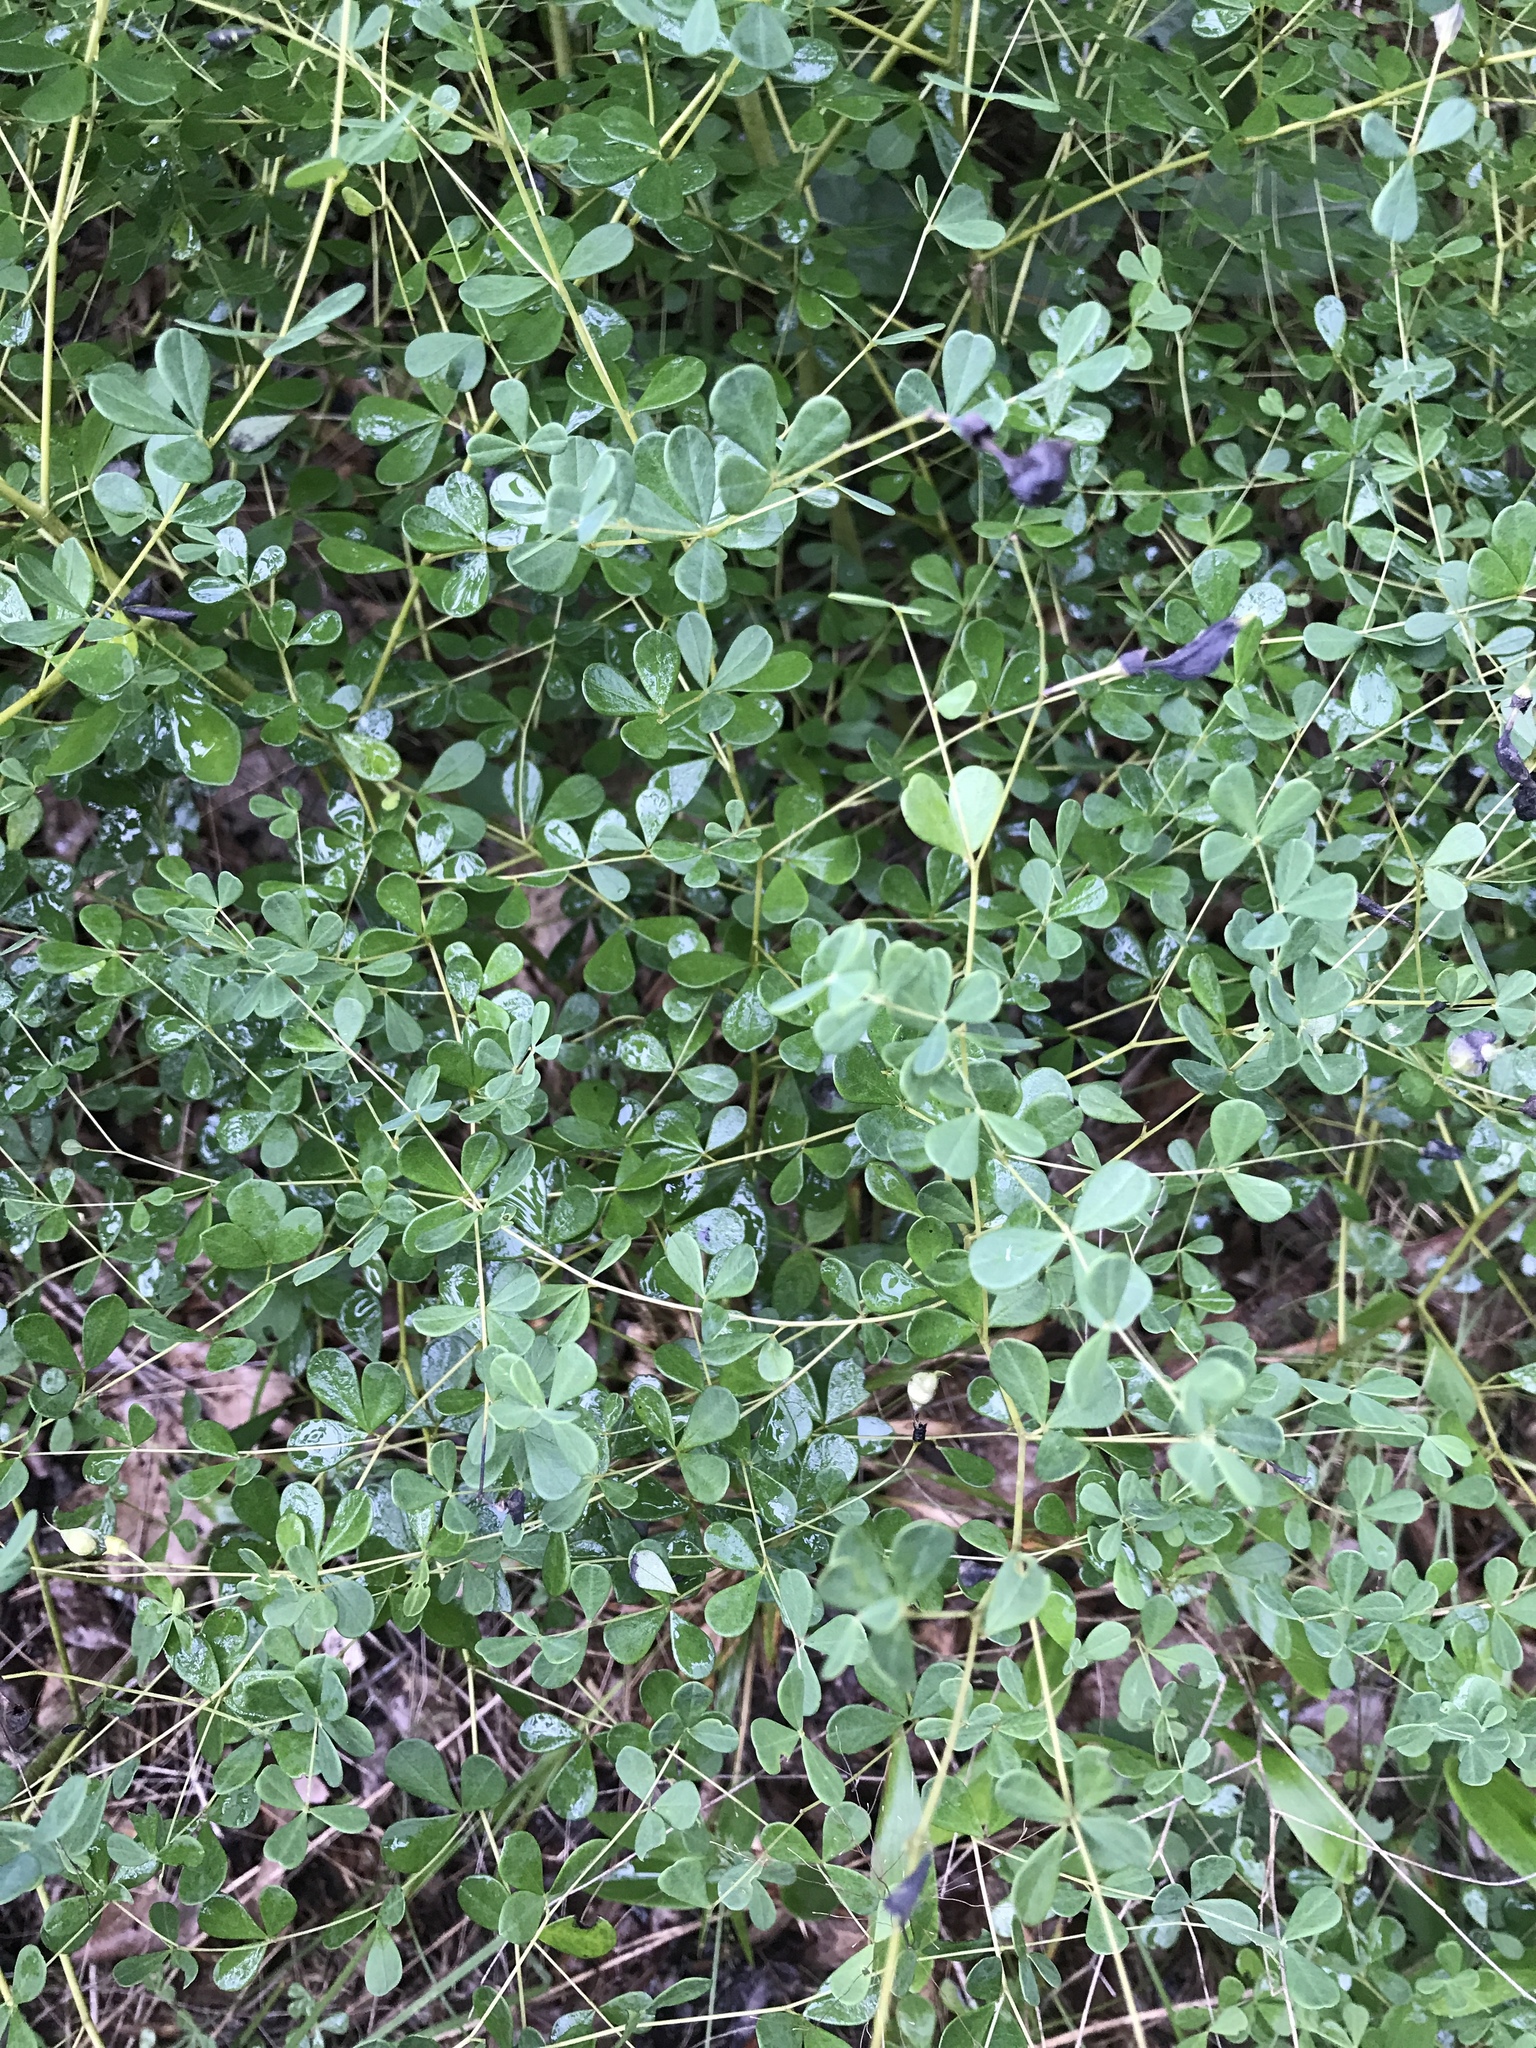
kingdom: Plantae
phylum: Tracheophyta
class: Magnoliopsida
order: Fabales
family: Fabaceae
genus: Baptisia
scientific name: Baptisia tinctoria
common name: Wild indigo
